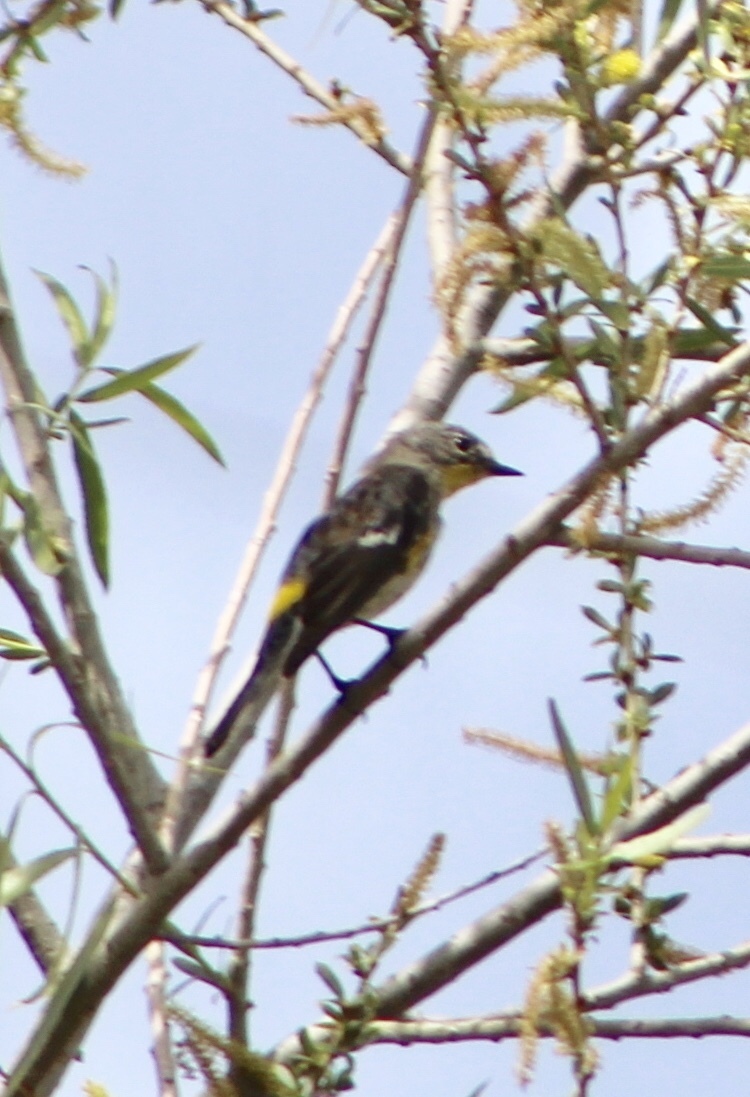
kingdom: Animalia
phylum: Chordata
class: Aves
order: Passeriformes
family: Parulidae
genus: Setophaga
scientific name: Setophaga coronata
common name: Myrtle warbler
